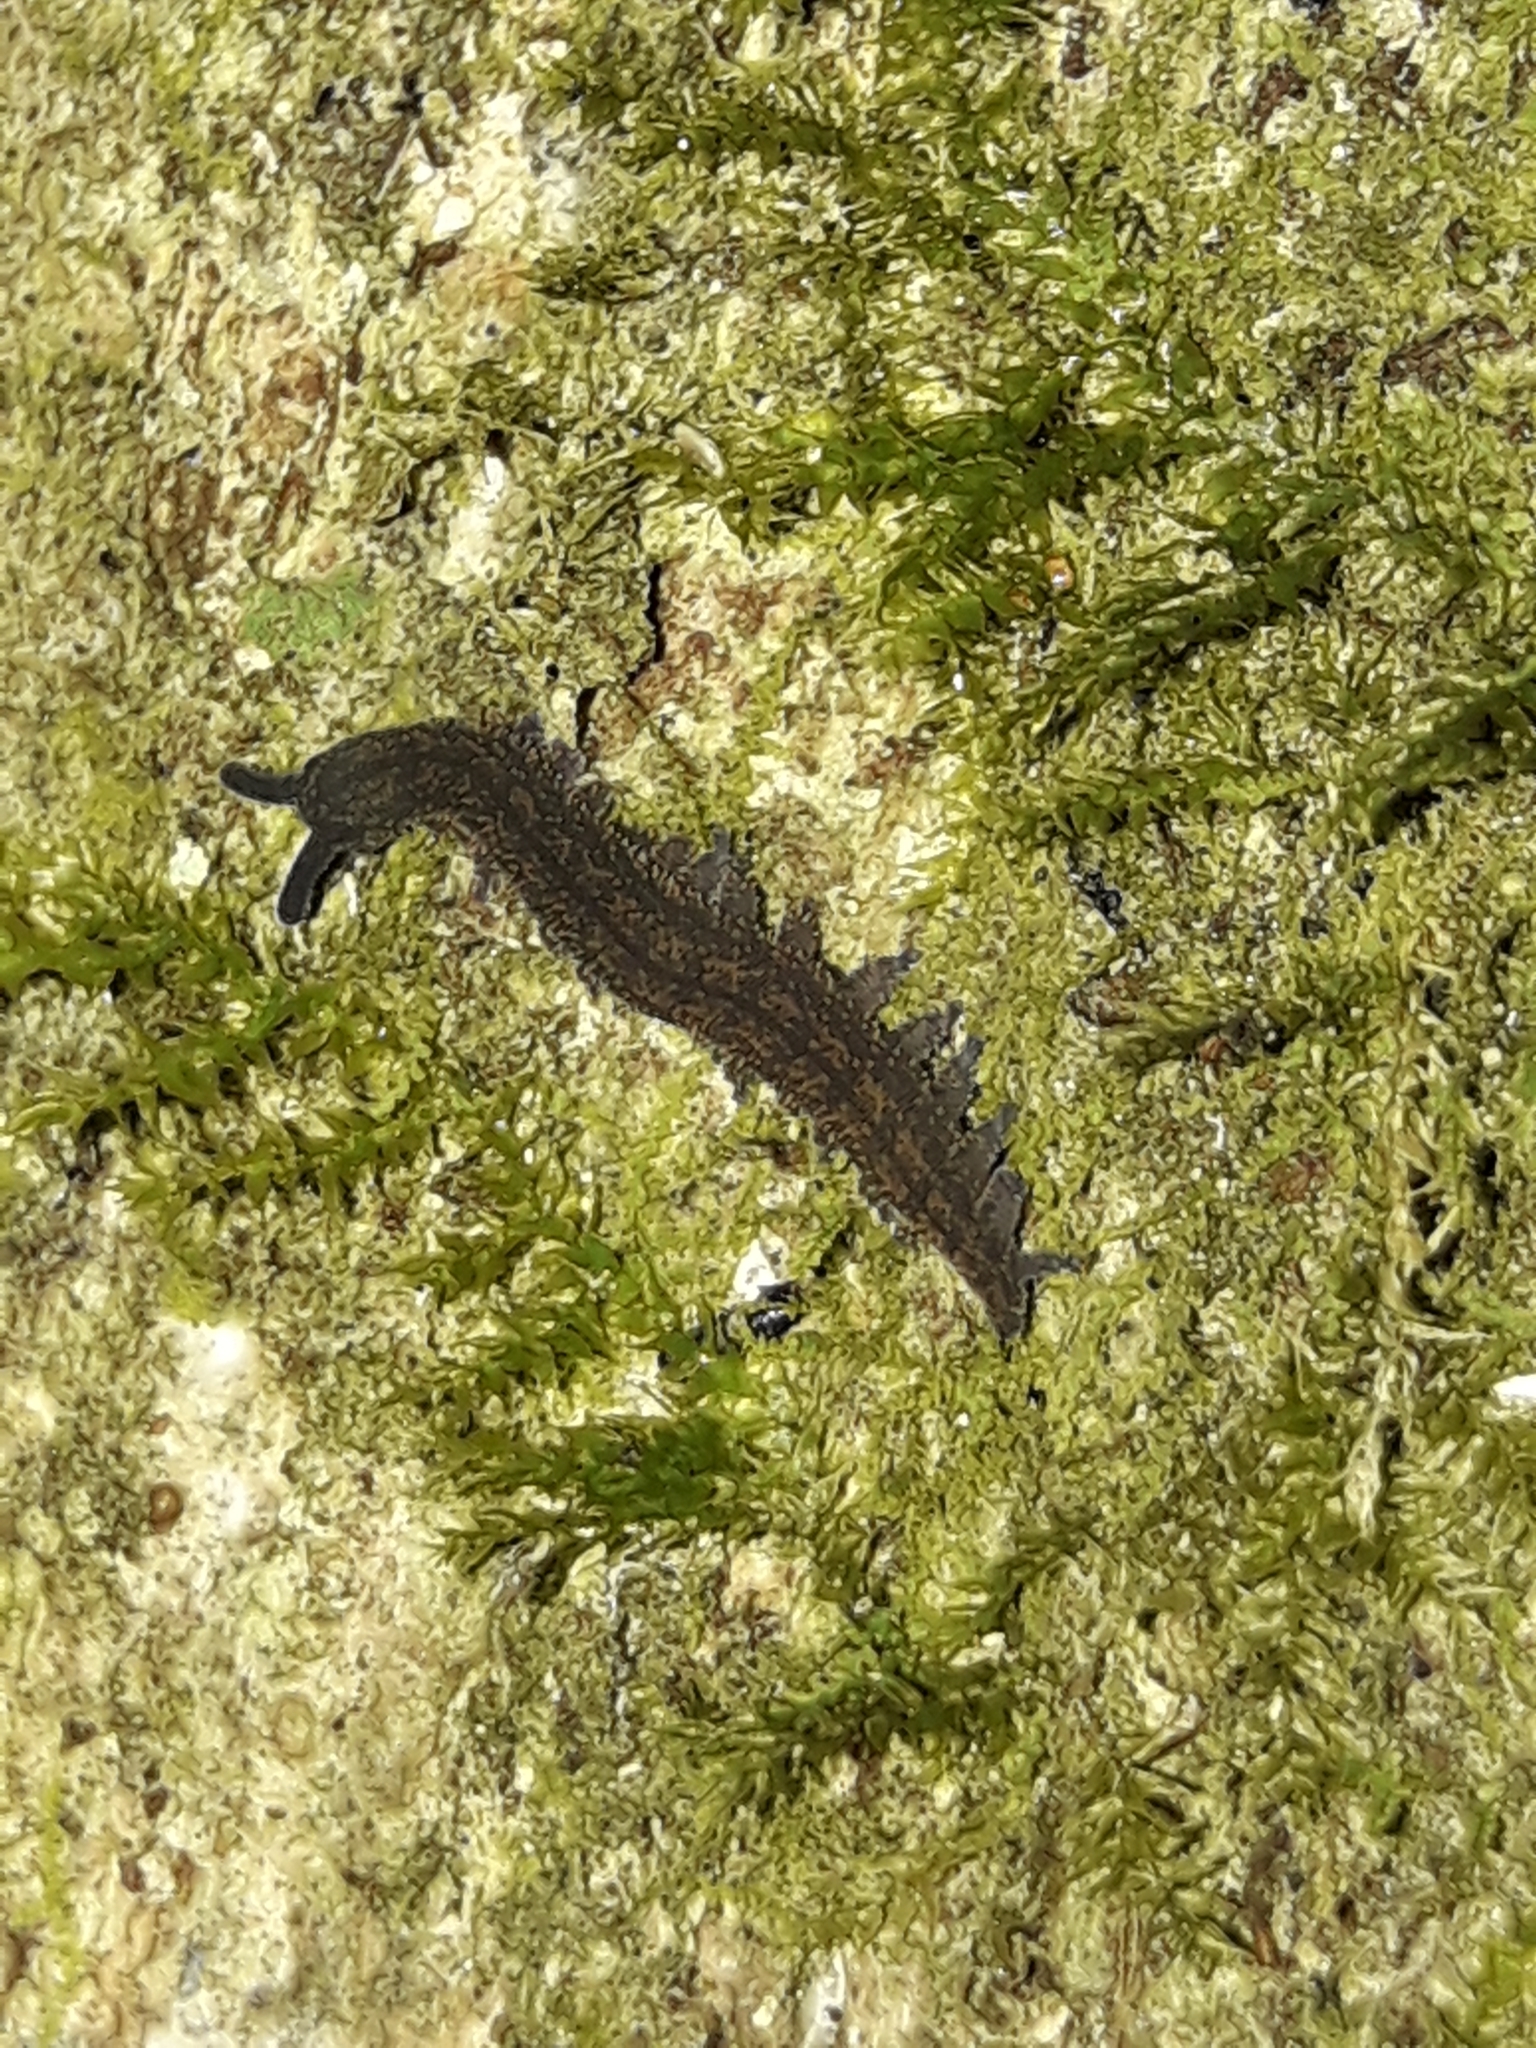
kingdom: Animalia
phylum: Onychophora
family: Peripatopsidae
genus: Peripatoides
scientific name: Peripatoides novaezealandiae
